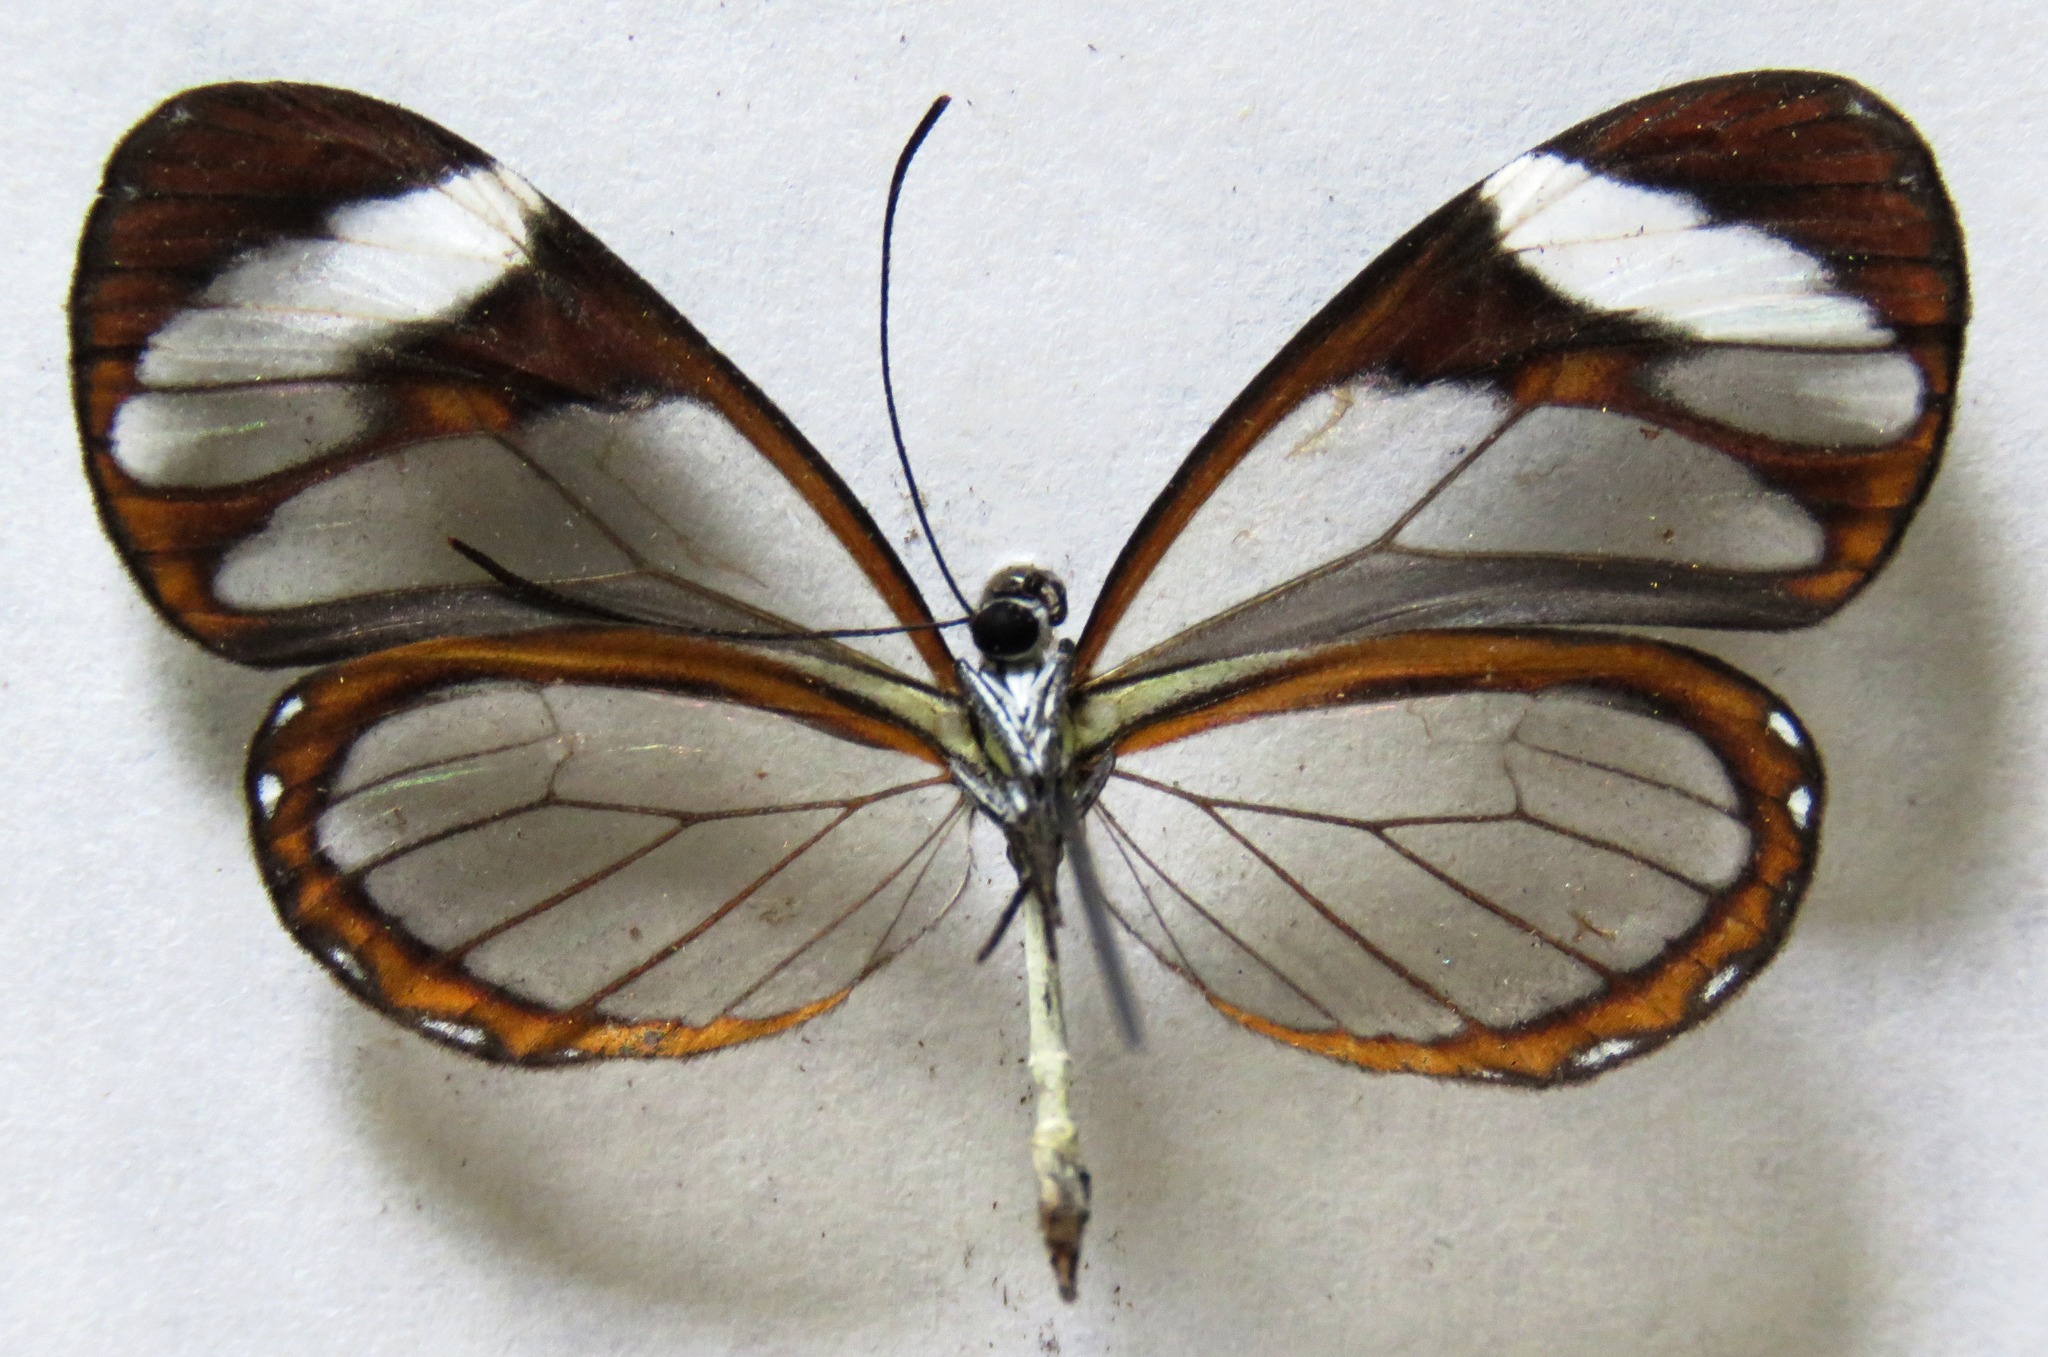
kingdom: Animalia
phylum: Arthropoda
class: Insecta
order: Lepidoptera
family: Nymphalidae
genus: Ithomia
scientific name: Ithomia patilla
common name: Patilla clearwing
